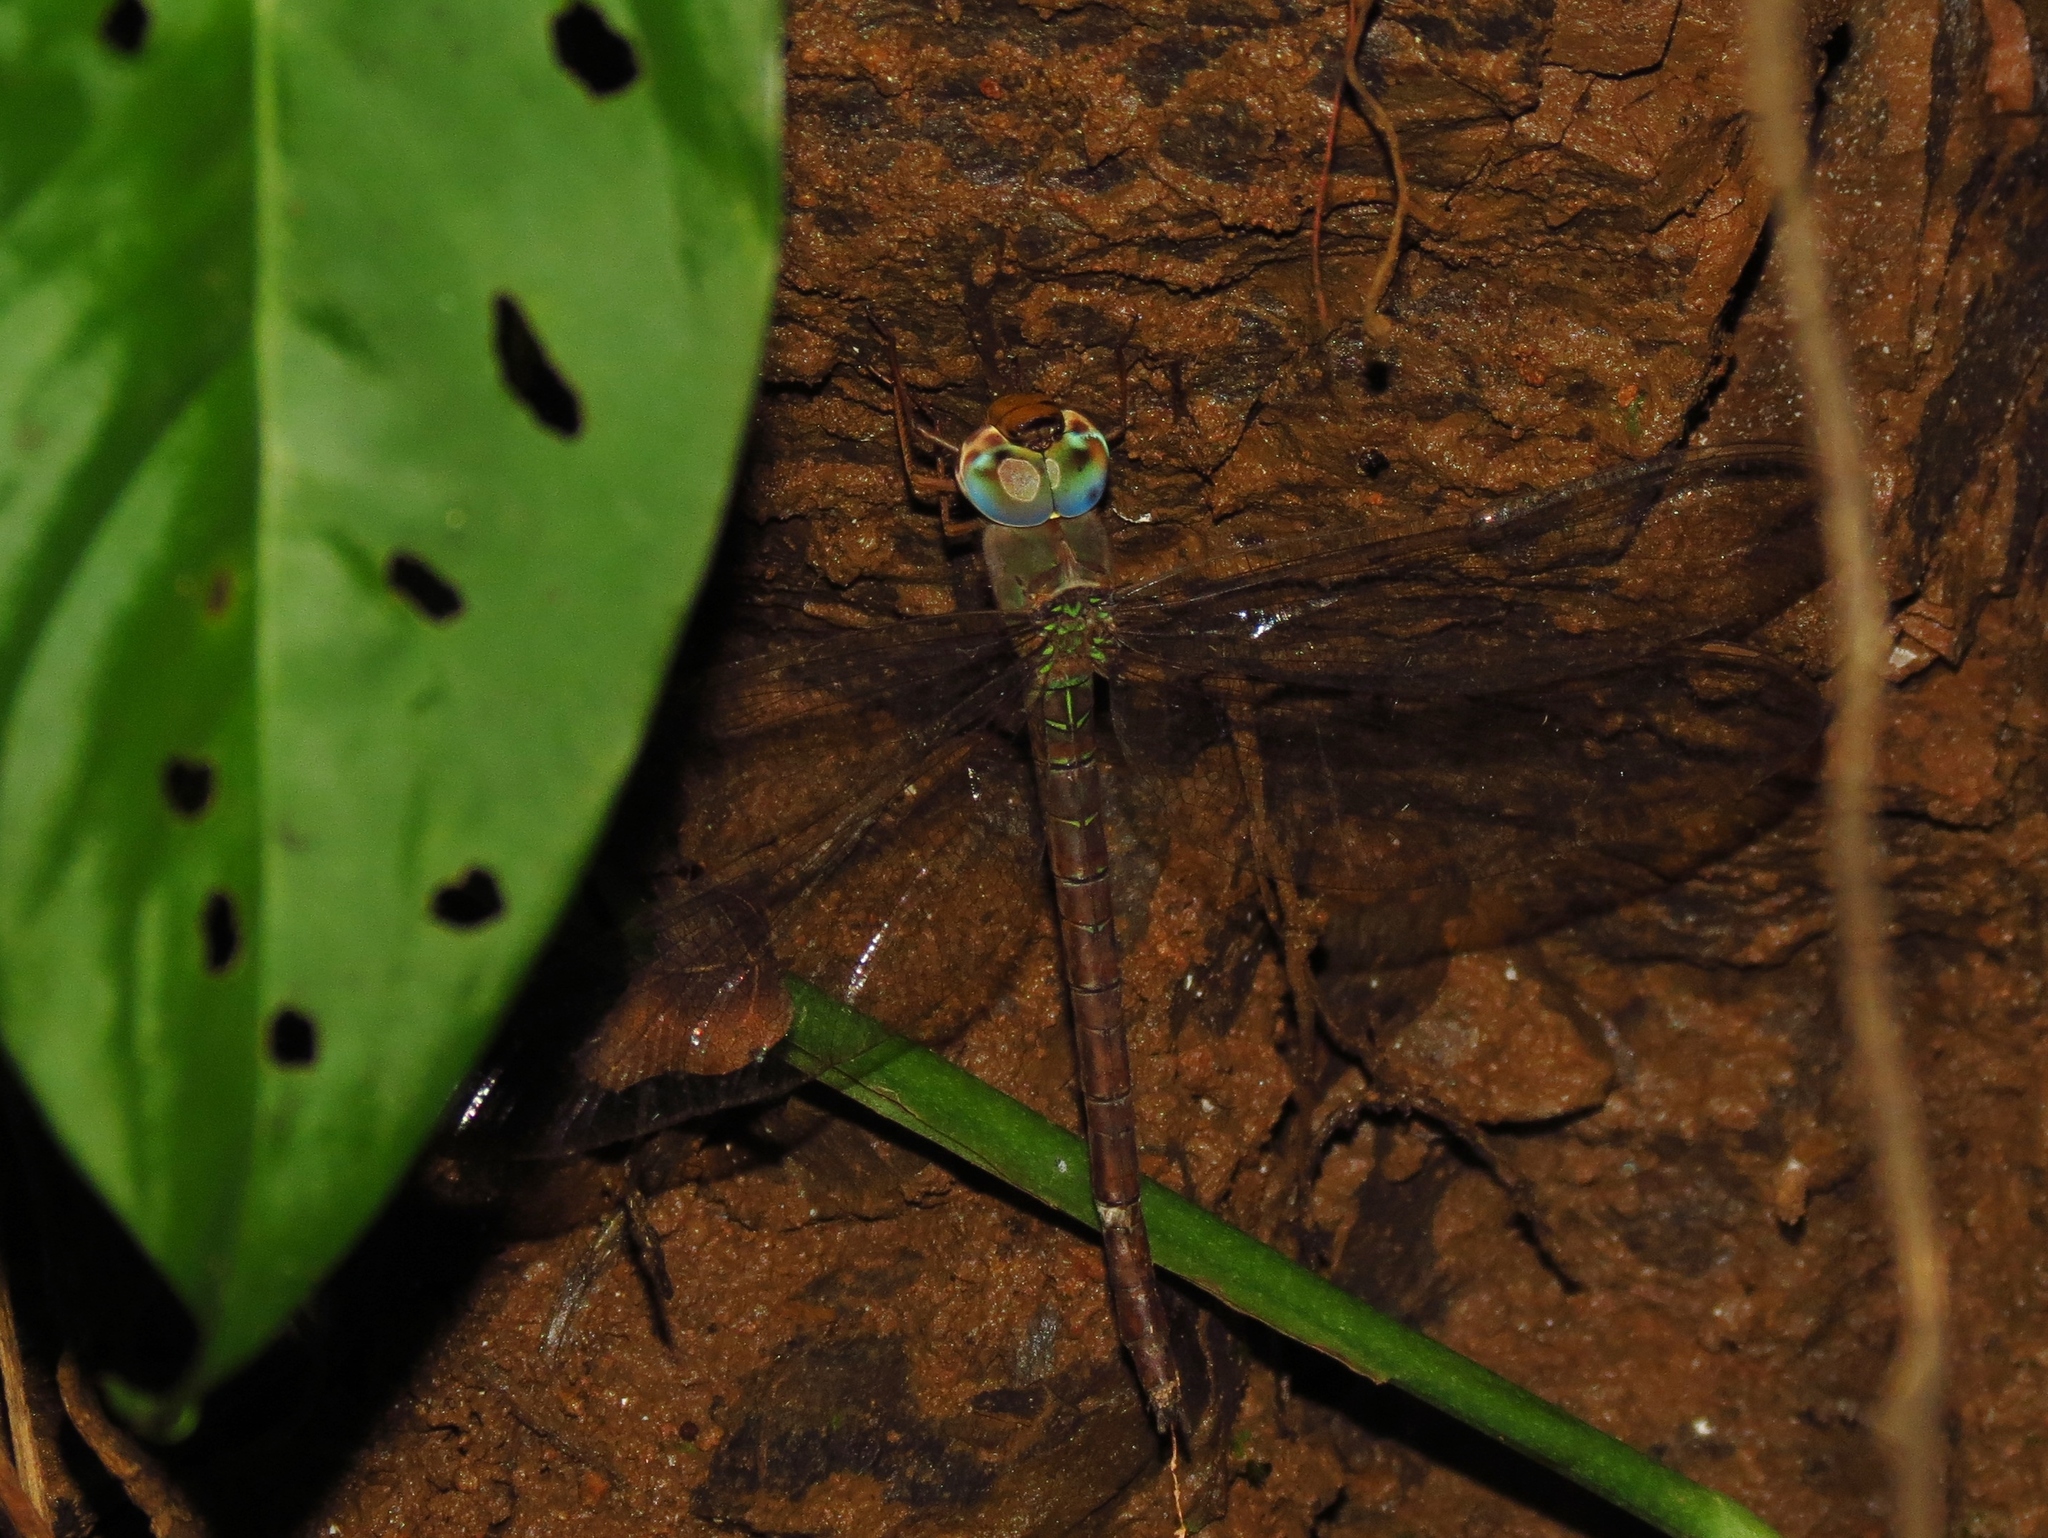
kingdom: Animalia
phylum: Arthropoda
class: Insecta
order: Odonata
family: Aeshnidae
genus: Gynacantha
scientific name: Gynacantha nervosa
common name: Twilight darner
